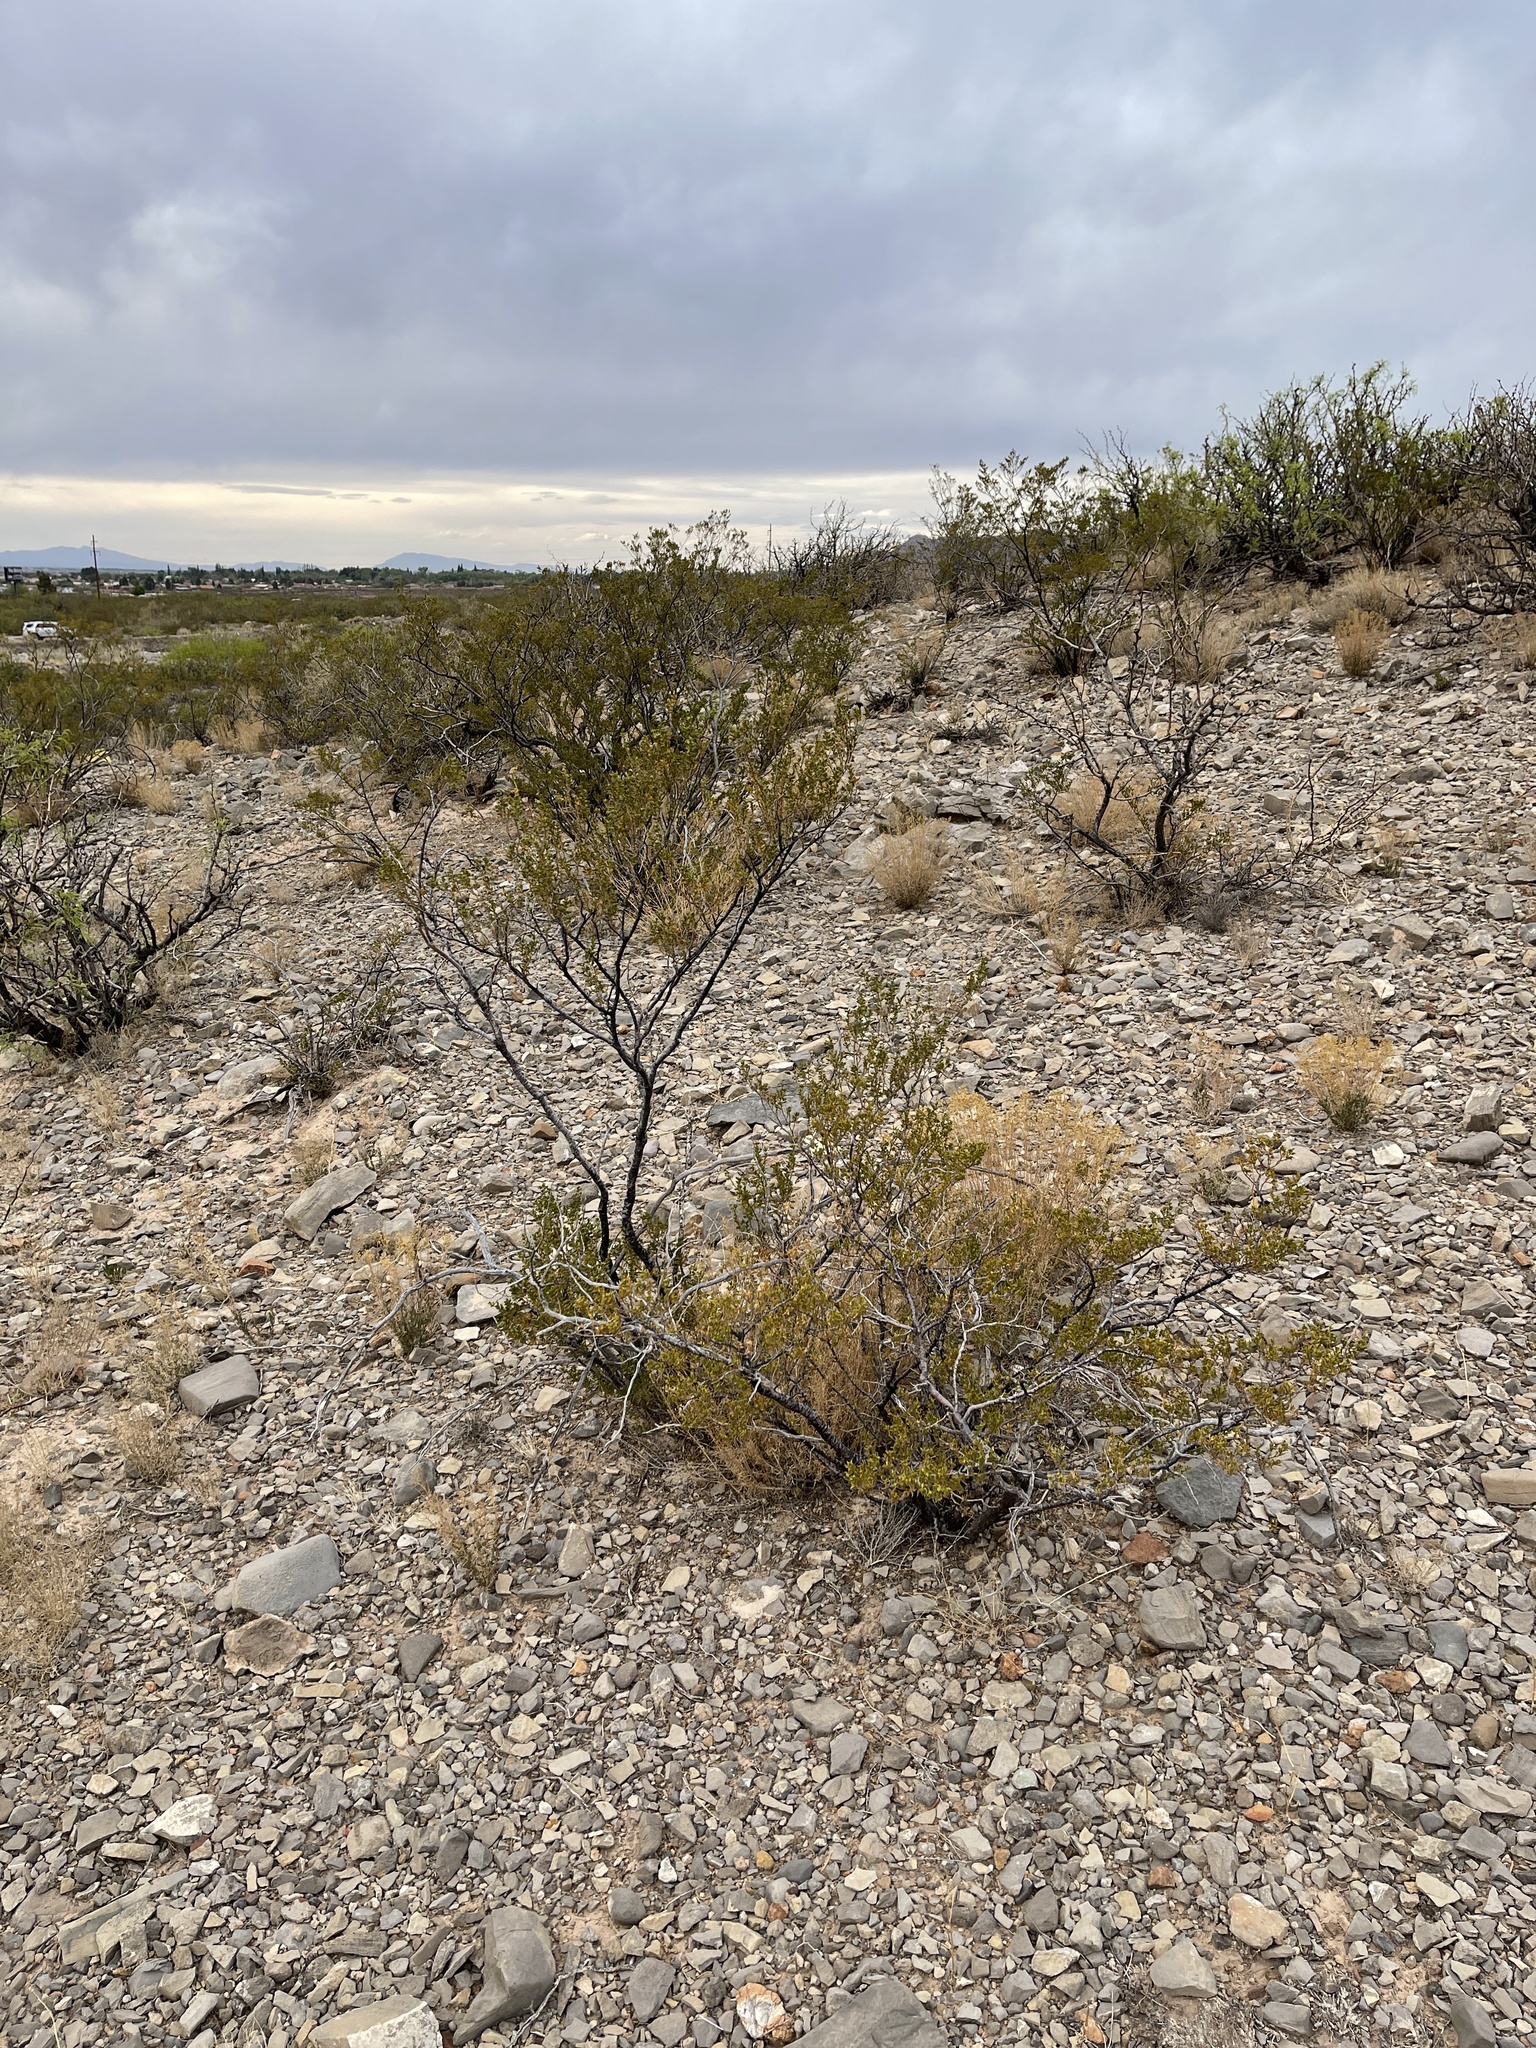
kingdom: Plantae
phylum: Tracheophyta
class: Magnoliopsida
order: Zygophyllales
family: Zygophyllaceae
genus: Larrea
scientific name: Larrea tridentata
